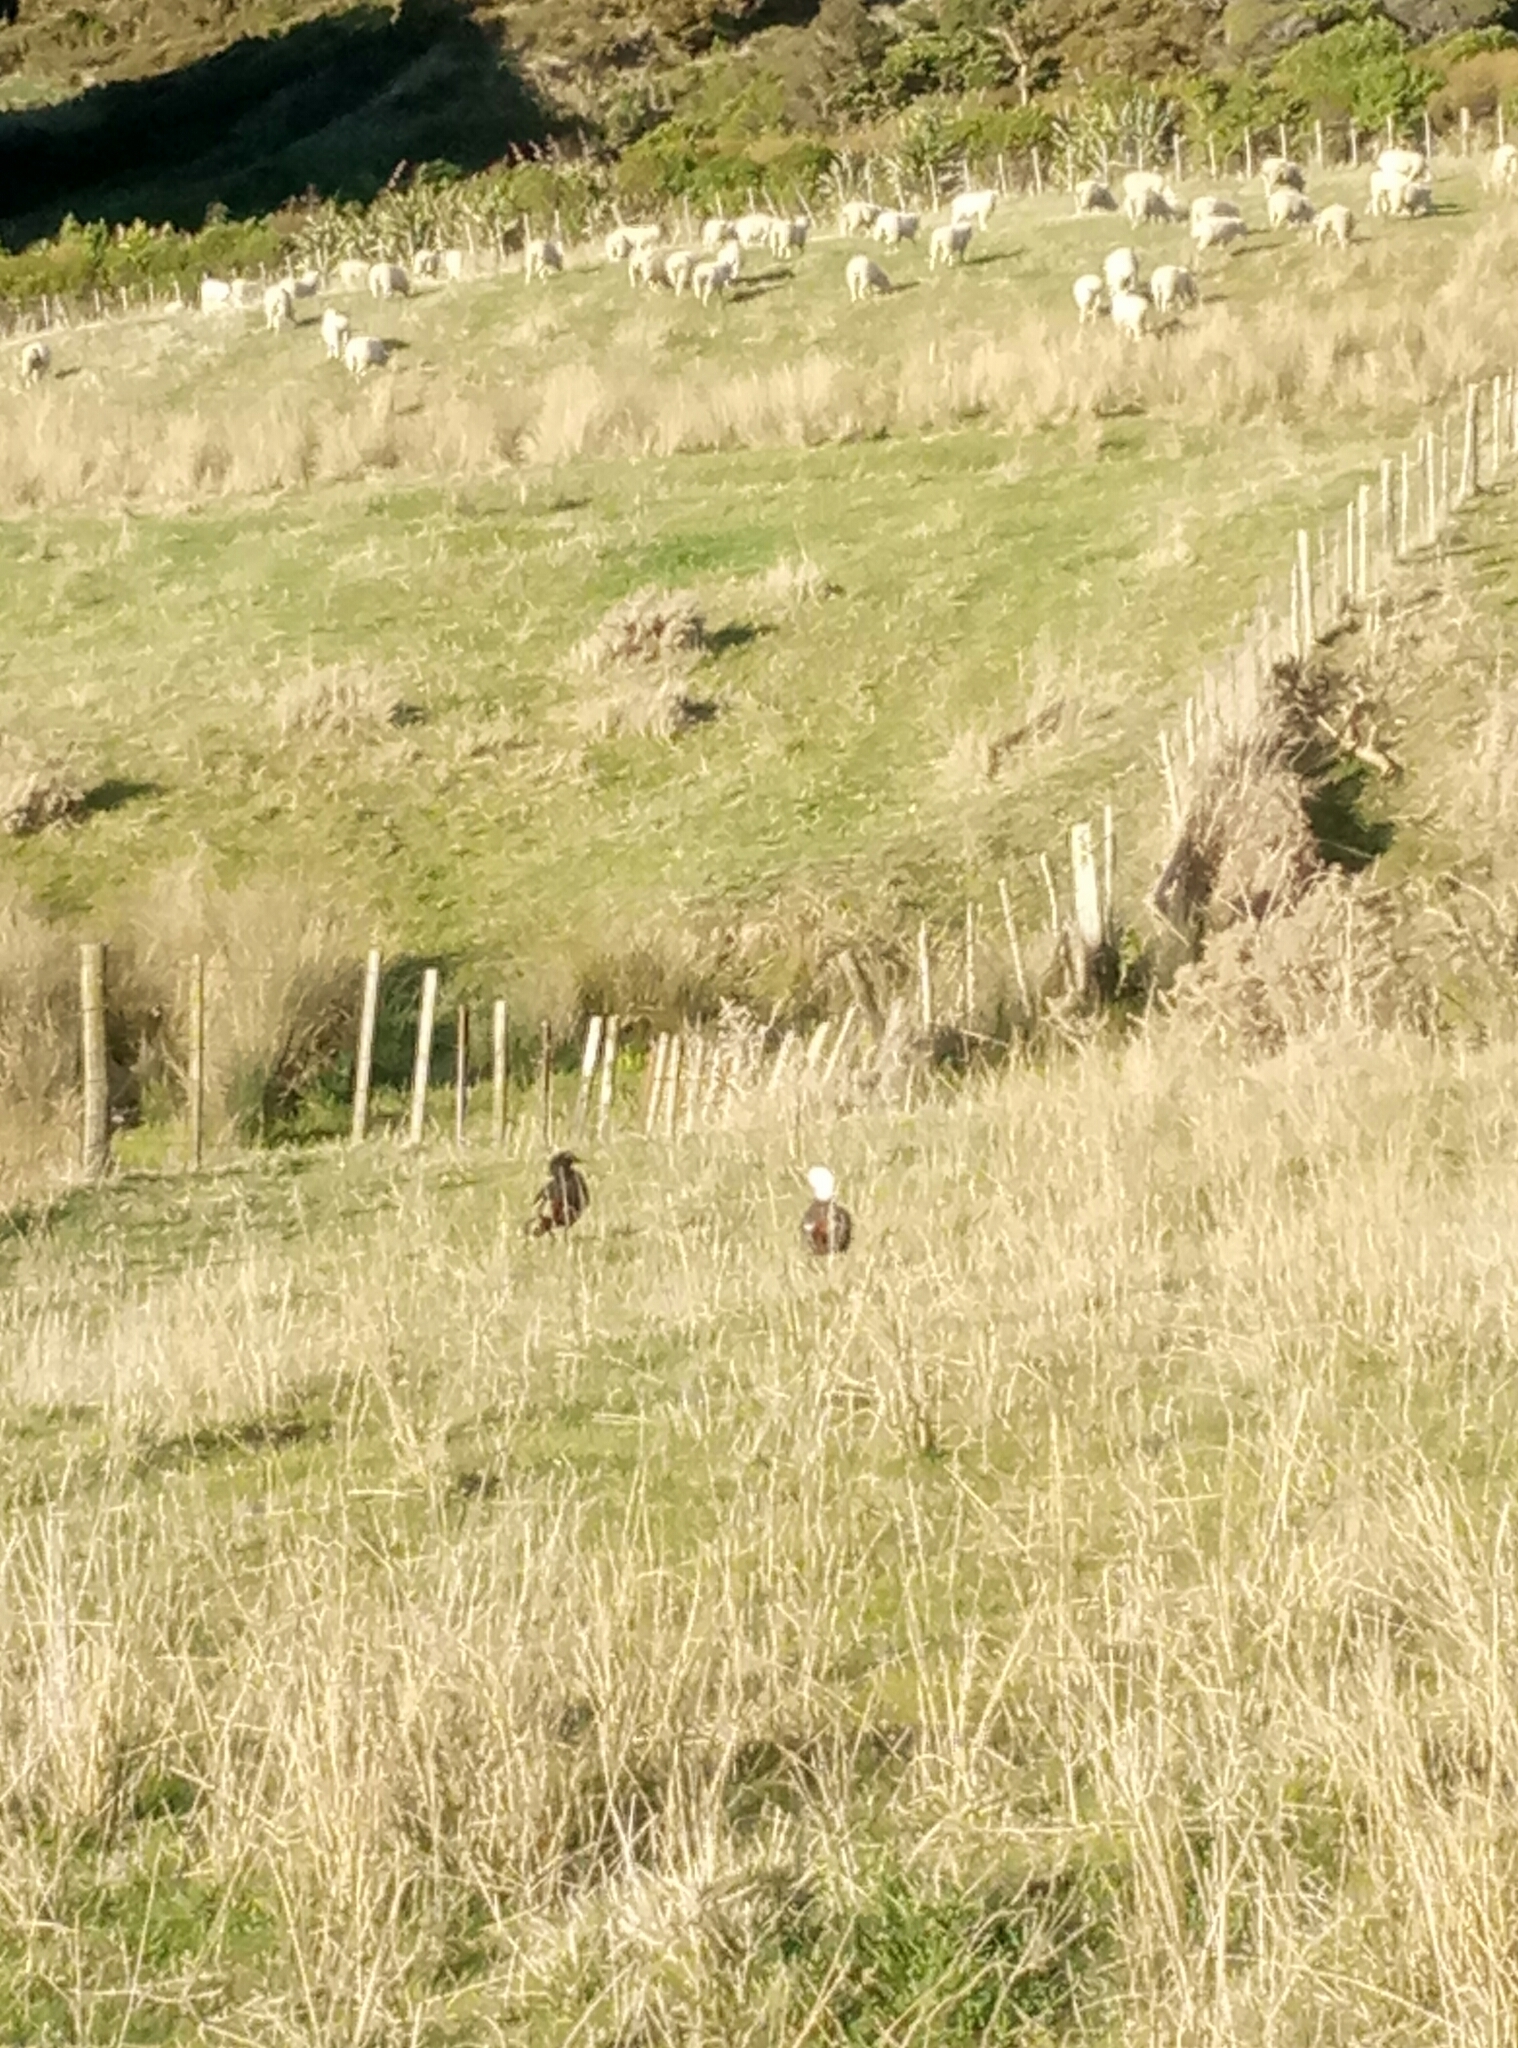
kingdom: Animalia
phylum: Chordata
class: Aves
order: Anseriformes
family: Anatidae
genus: Tadorna
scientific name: Tadorna variegata
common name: Paradise shelduck
